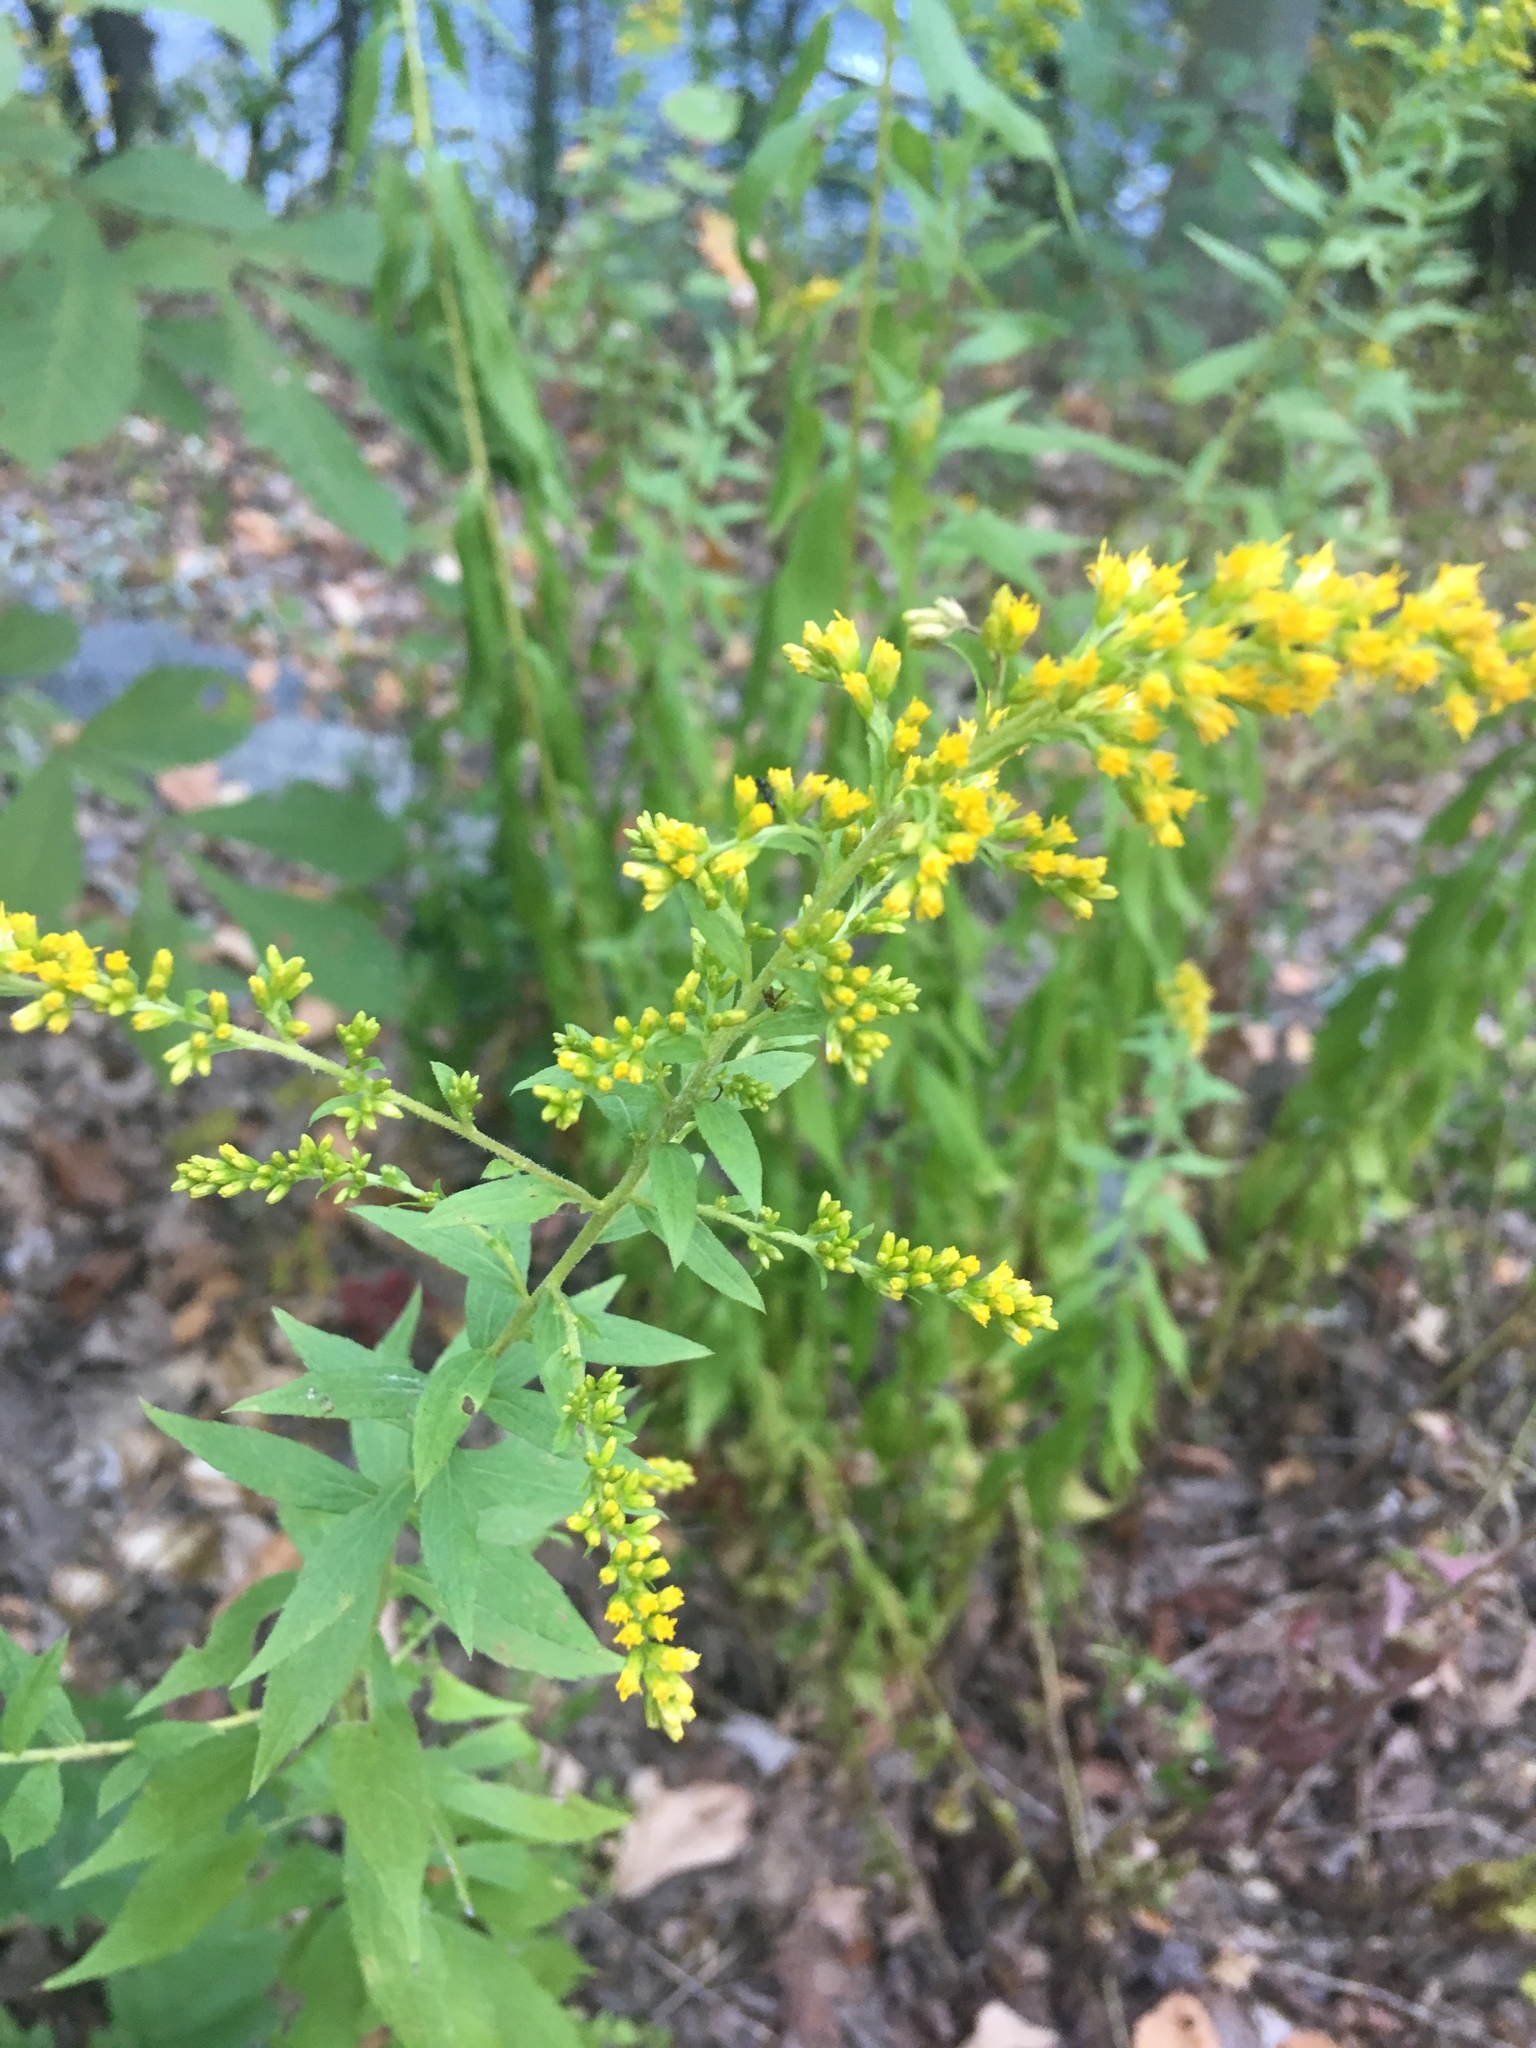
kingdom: Plantae
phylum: Tracheophyta
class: Magnoliopsida
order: Asterales
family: Asteraceae
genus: Solidago
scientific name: Solidago rugosa
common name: Rough-stemmed goldenrod
